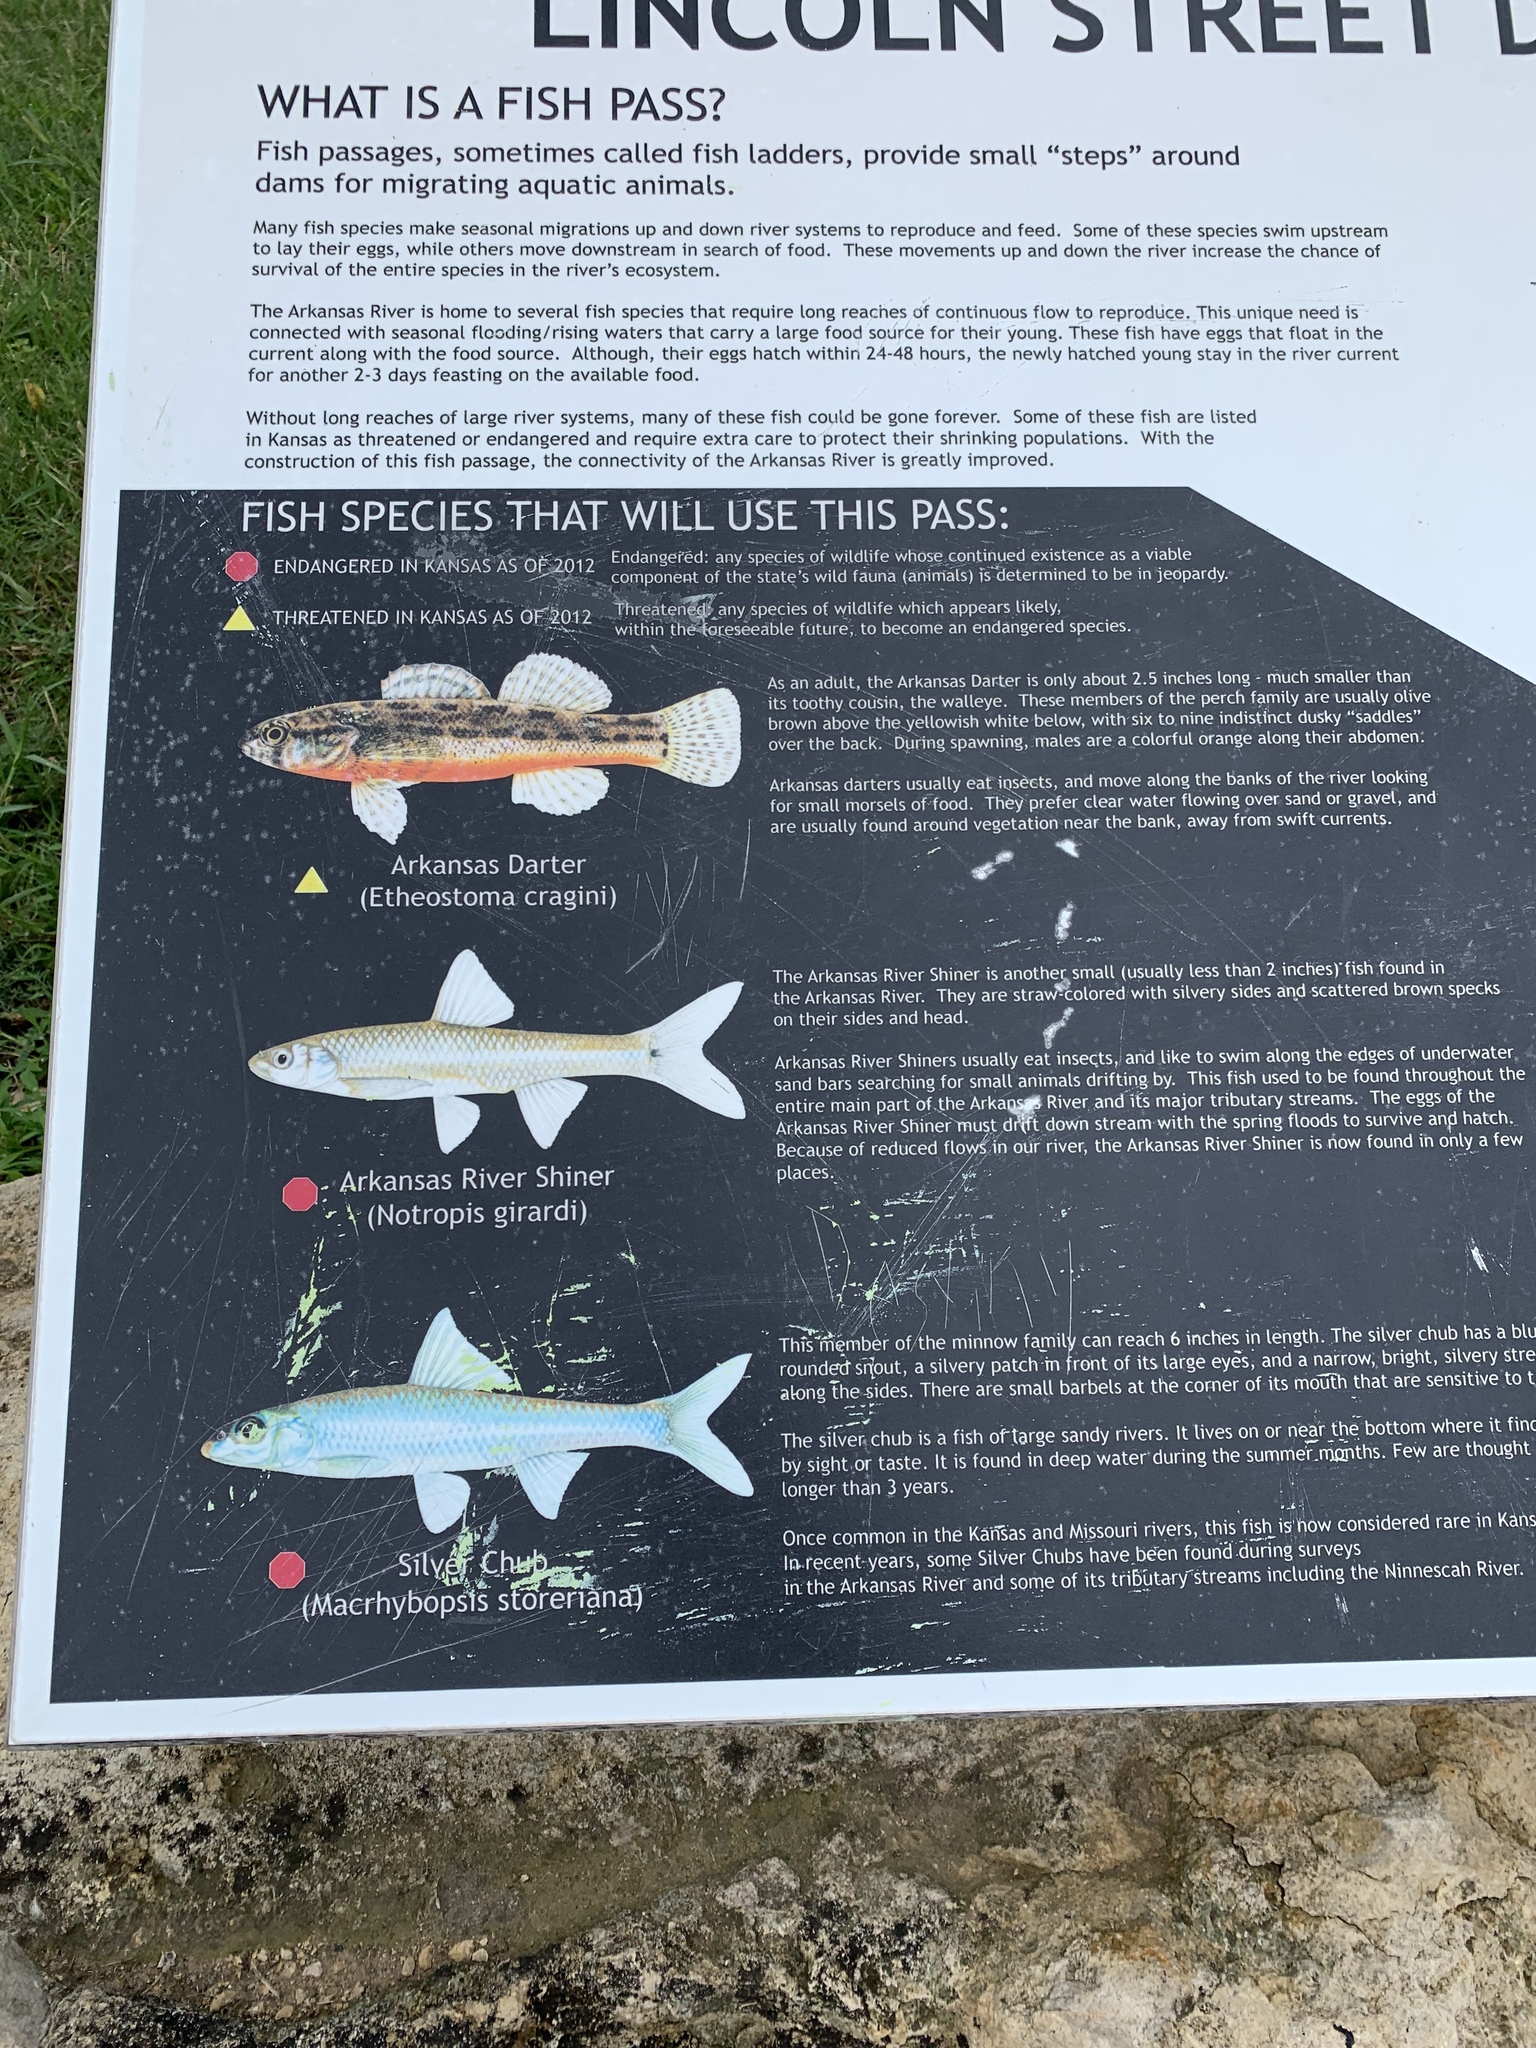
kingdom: Animalia
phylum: Chordata
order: Perciformes
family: Sciaenidae
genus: Aplodinotus
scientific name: Aplodinotus grunniens
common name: Freshwater drum
